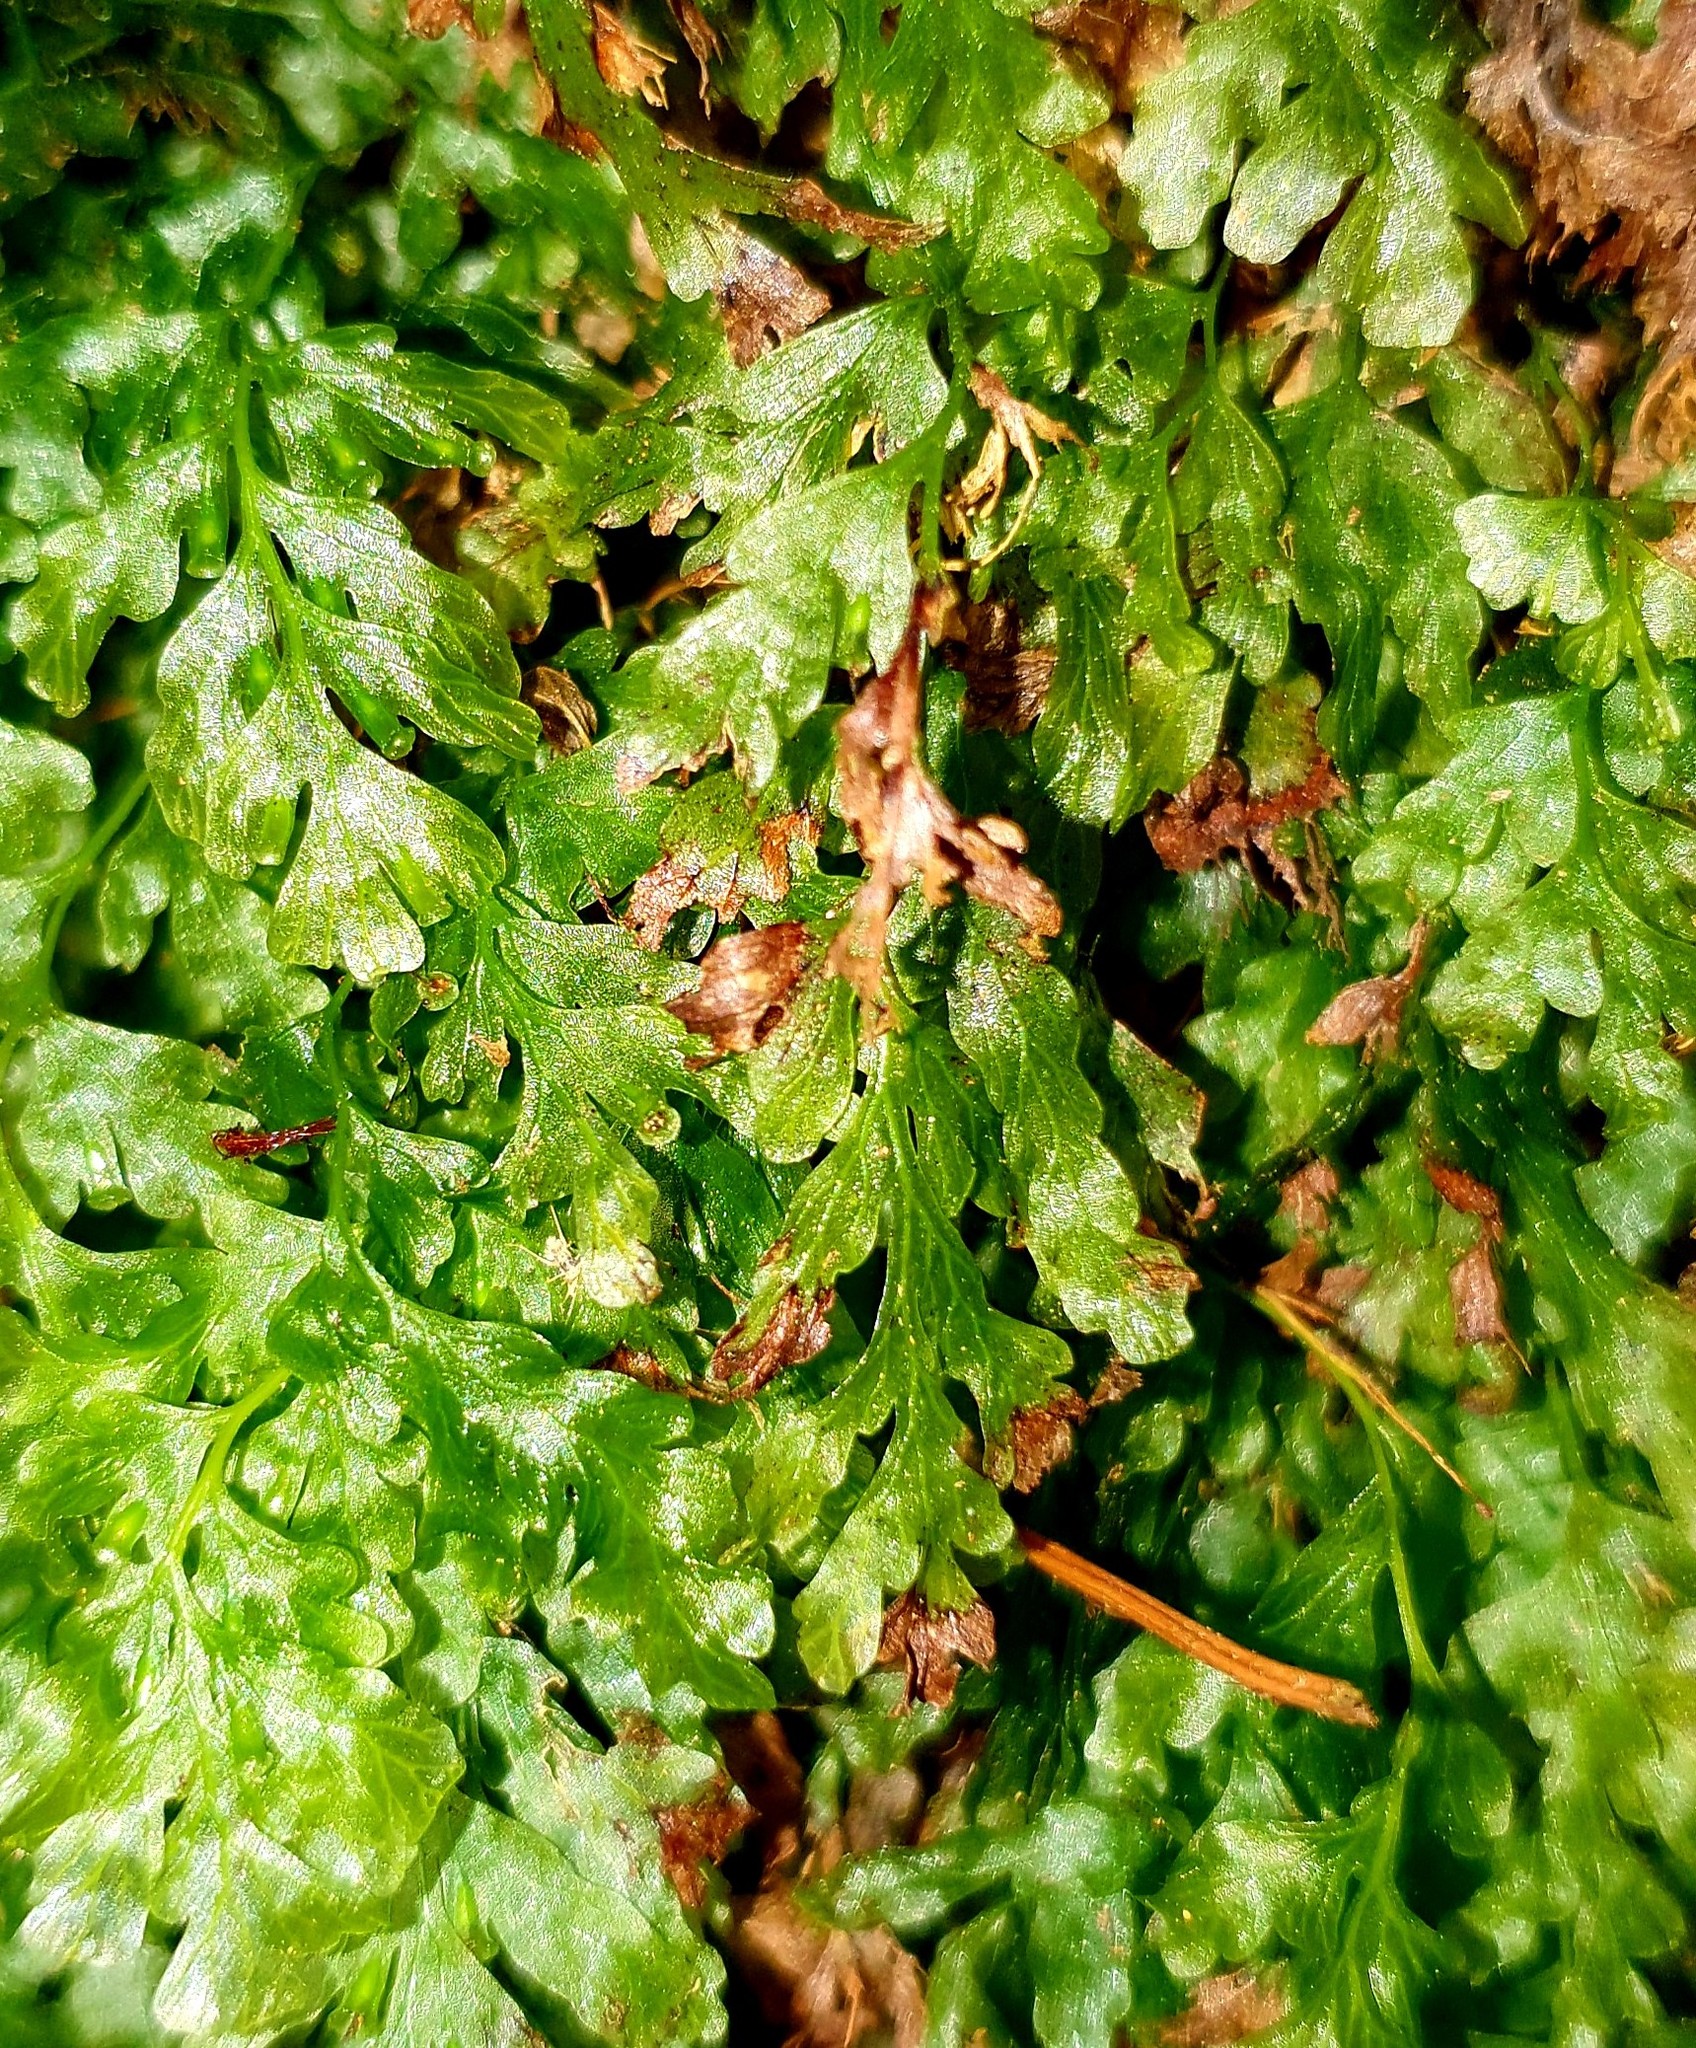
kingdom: Plantae
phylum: Tracheophyta
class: Polypodiopsida
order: Hymenophyllales
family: Hymenophyllaceae
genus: Polyphlebium
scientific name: Polyphlebium venosum
